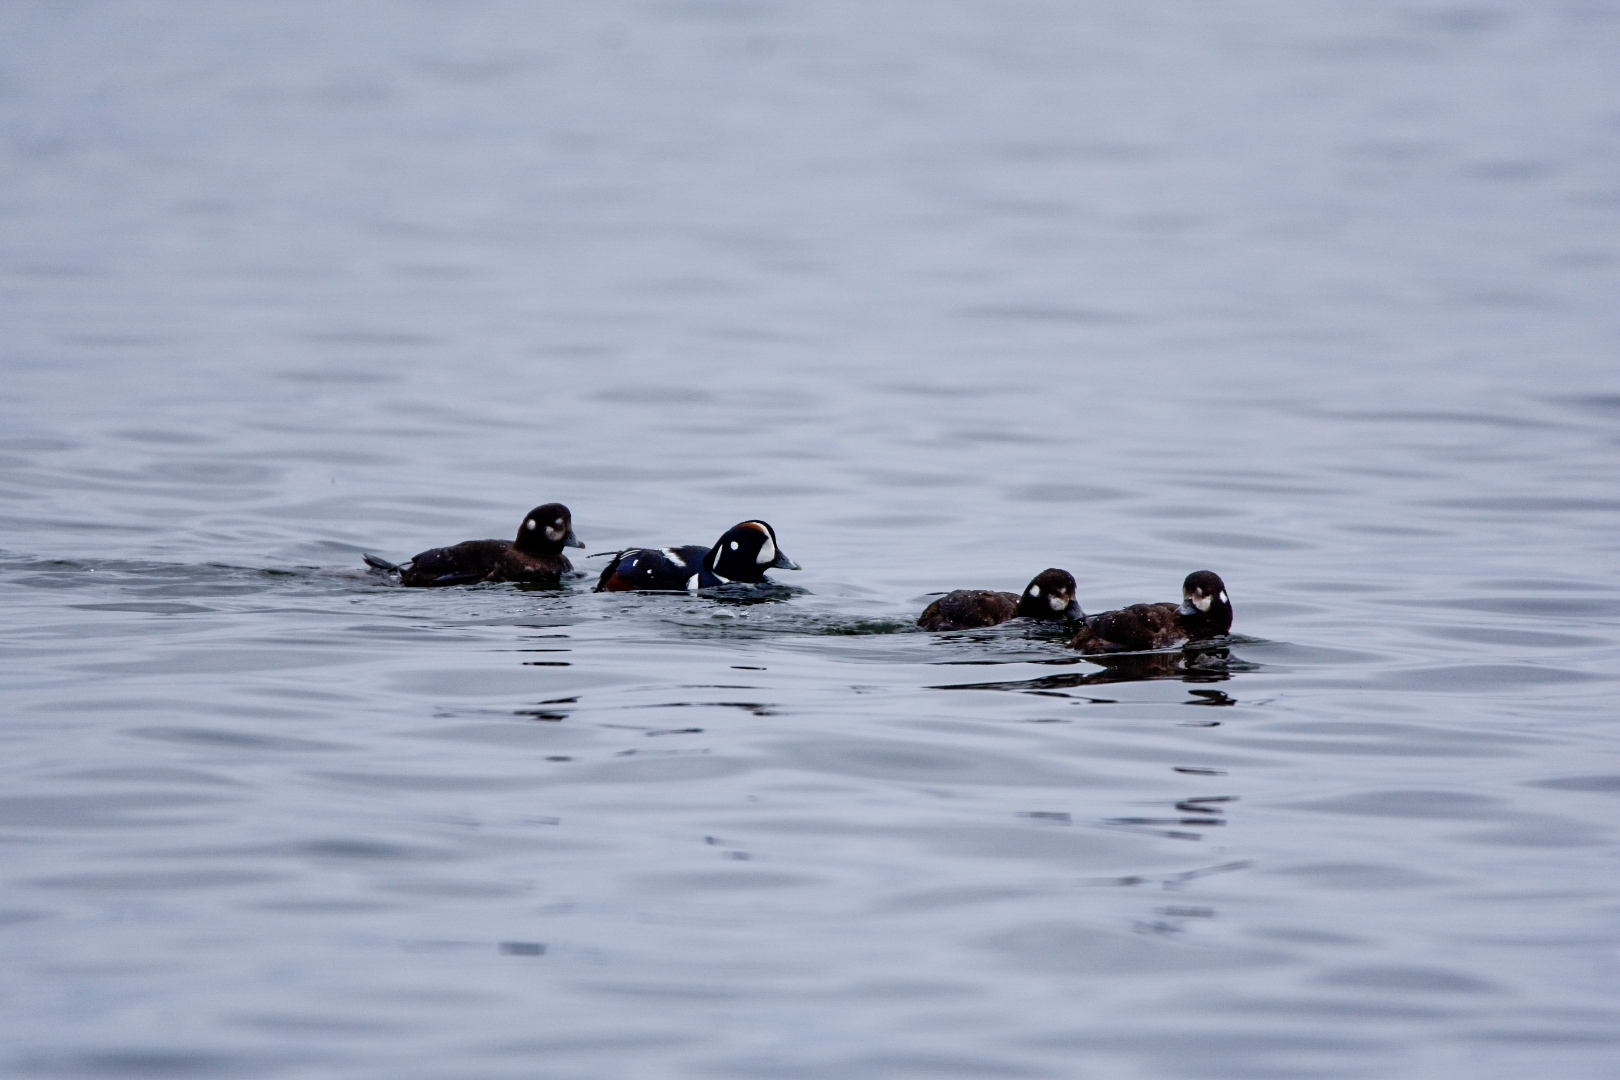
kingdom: Animalia
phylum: Chordata
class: Aves
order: Anseriformes
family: Anatidae
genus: Histrionicus
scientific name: Histrionicus histrionicus
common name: Harlequin duck
